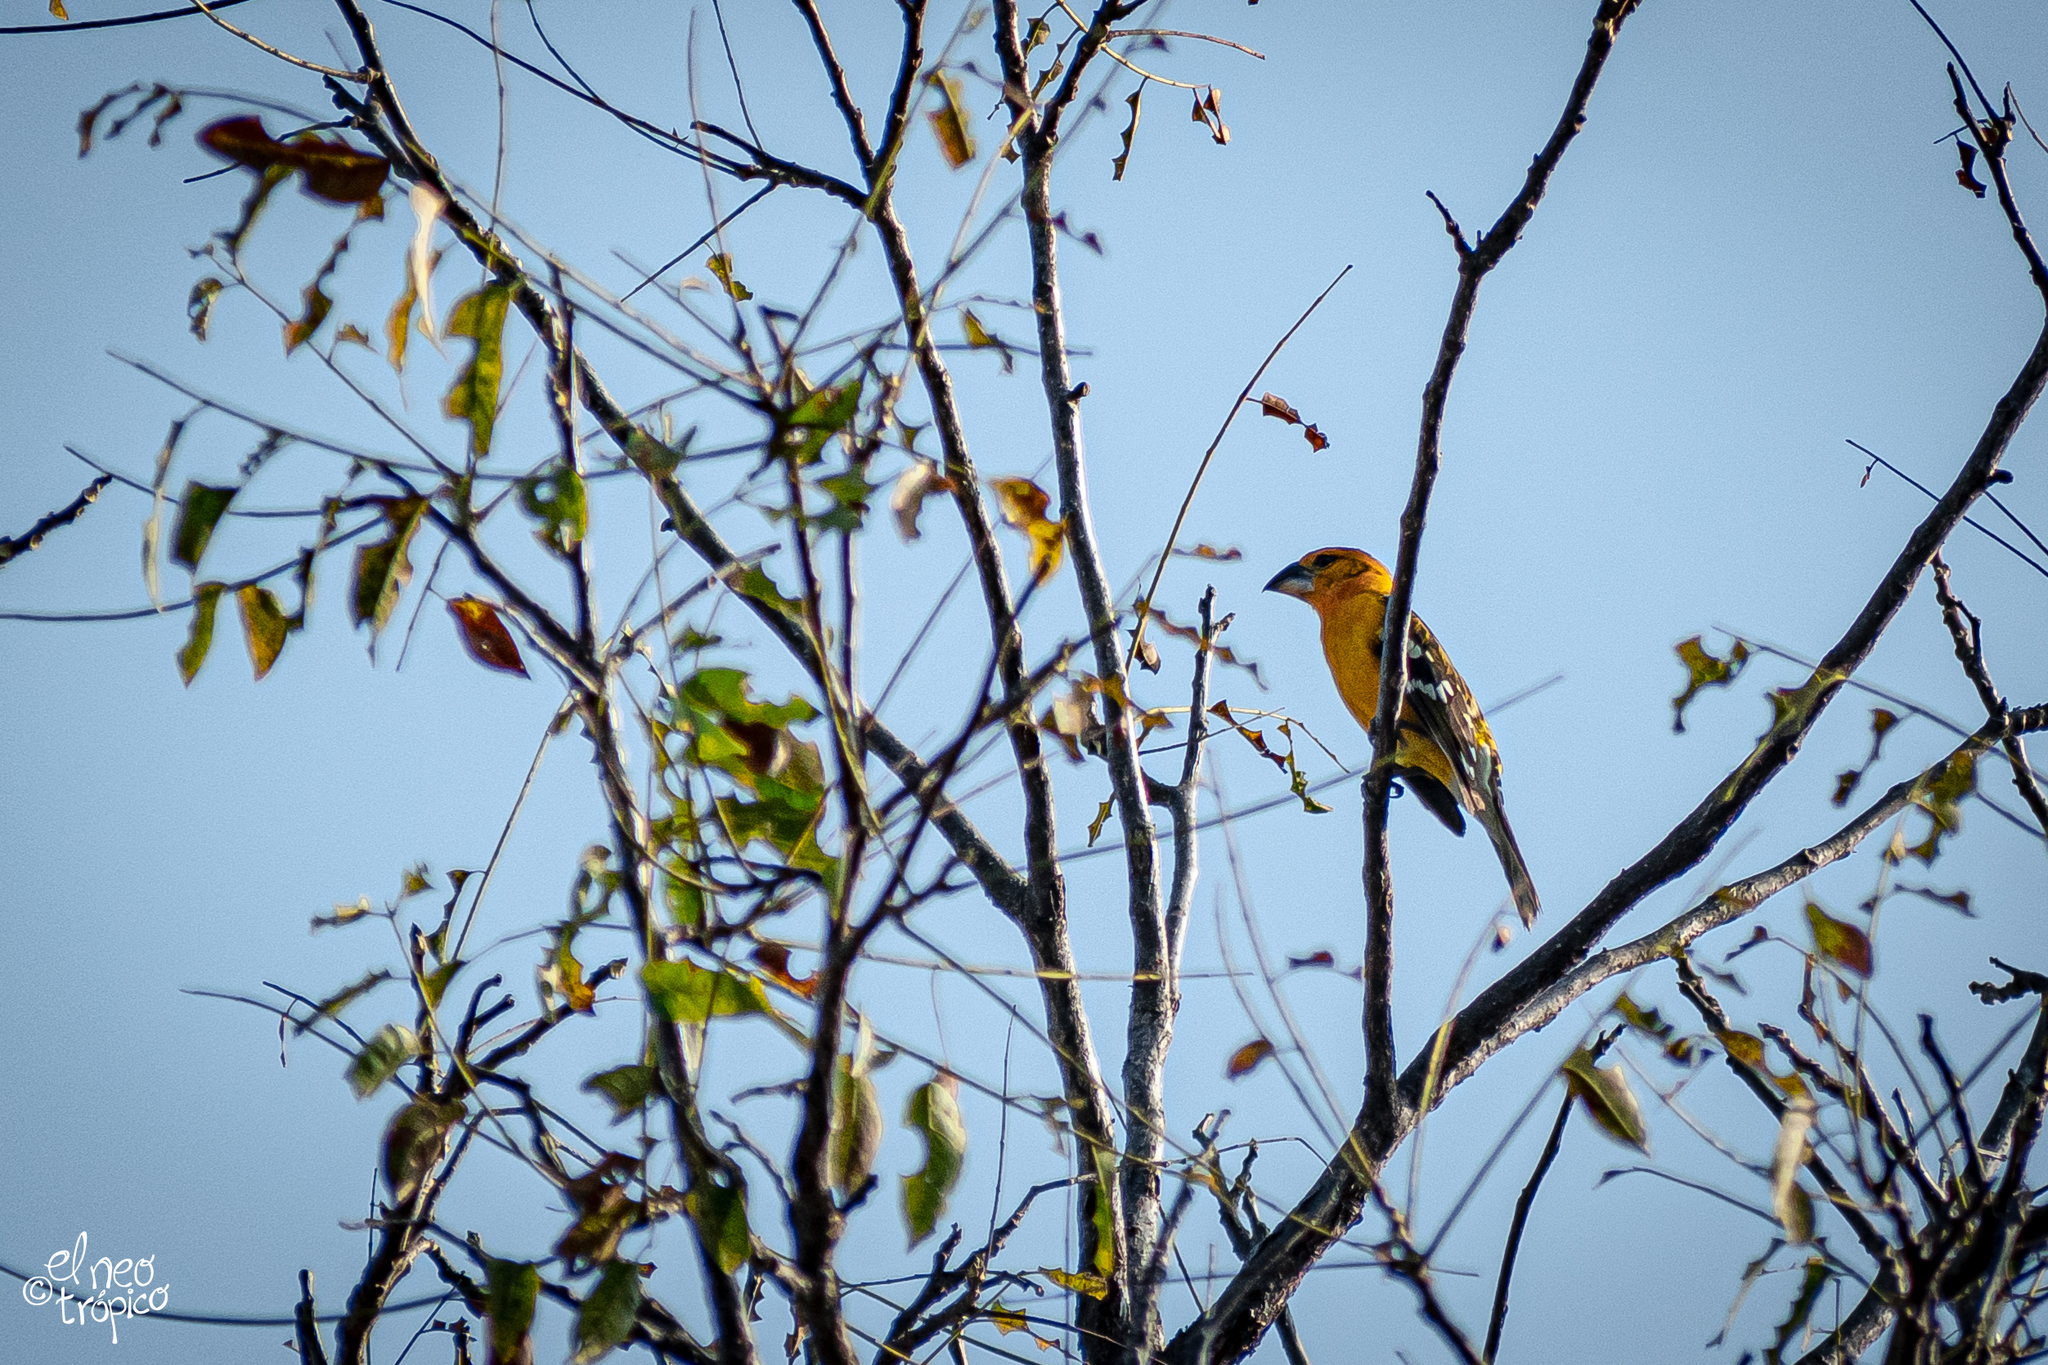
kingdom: Animalia
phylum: Chordata
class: Aves
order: Passeriformes
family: Cardinalidae
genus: Pheucticus
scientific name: Pheucticus chrysopeplus
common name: Yellow grosbeak
